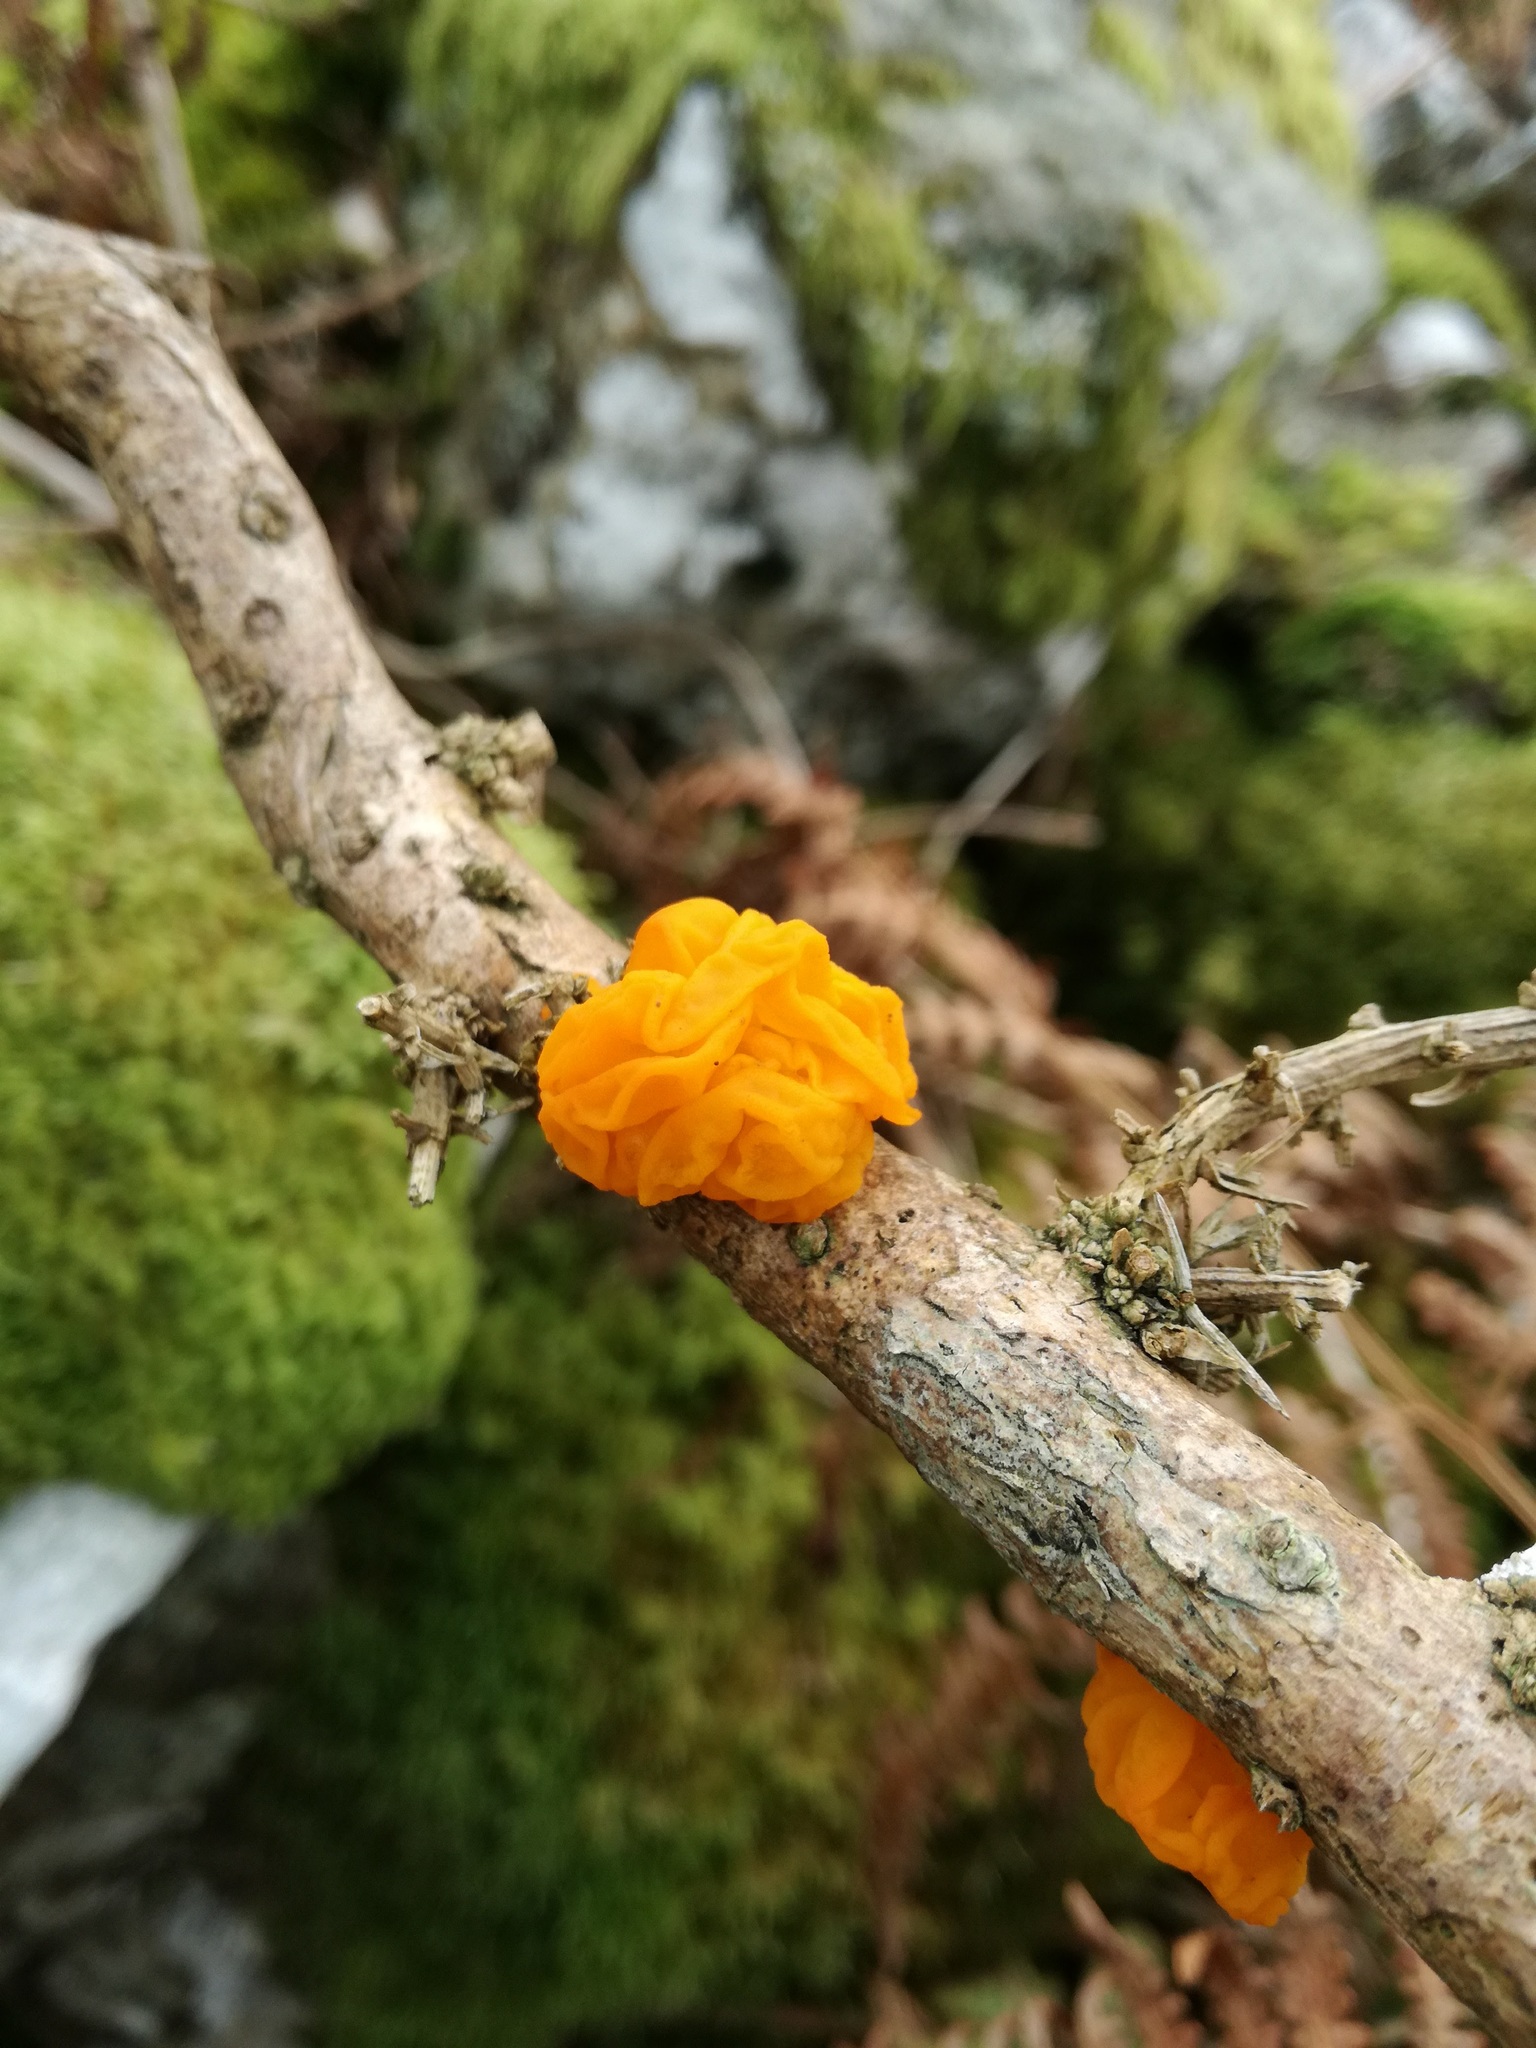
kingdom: Fungi
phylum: Basidiomycota
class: Tremellomycetes
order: Tremellales
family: Tremellaceae
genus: Tremella
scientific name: Tremella mesenterica
